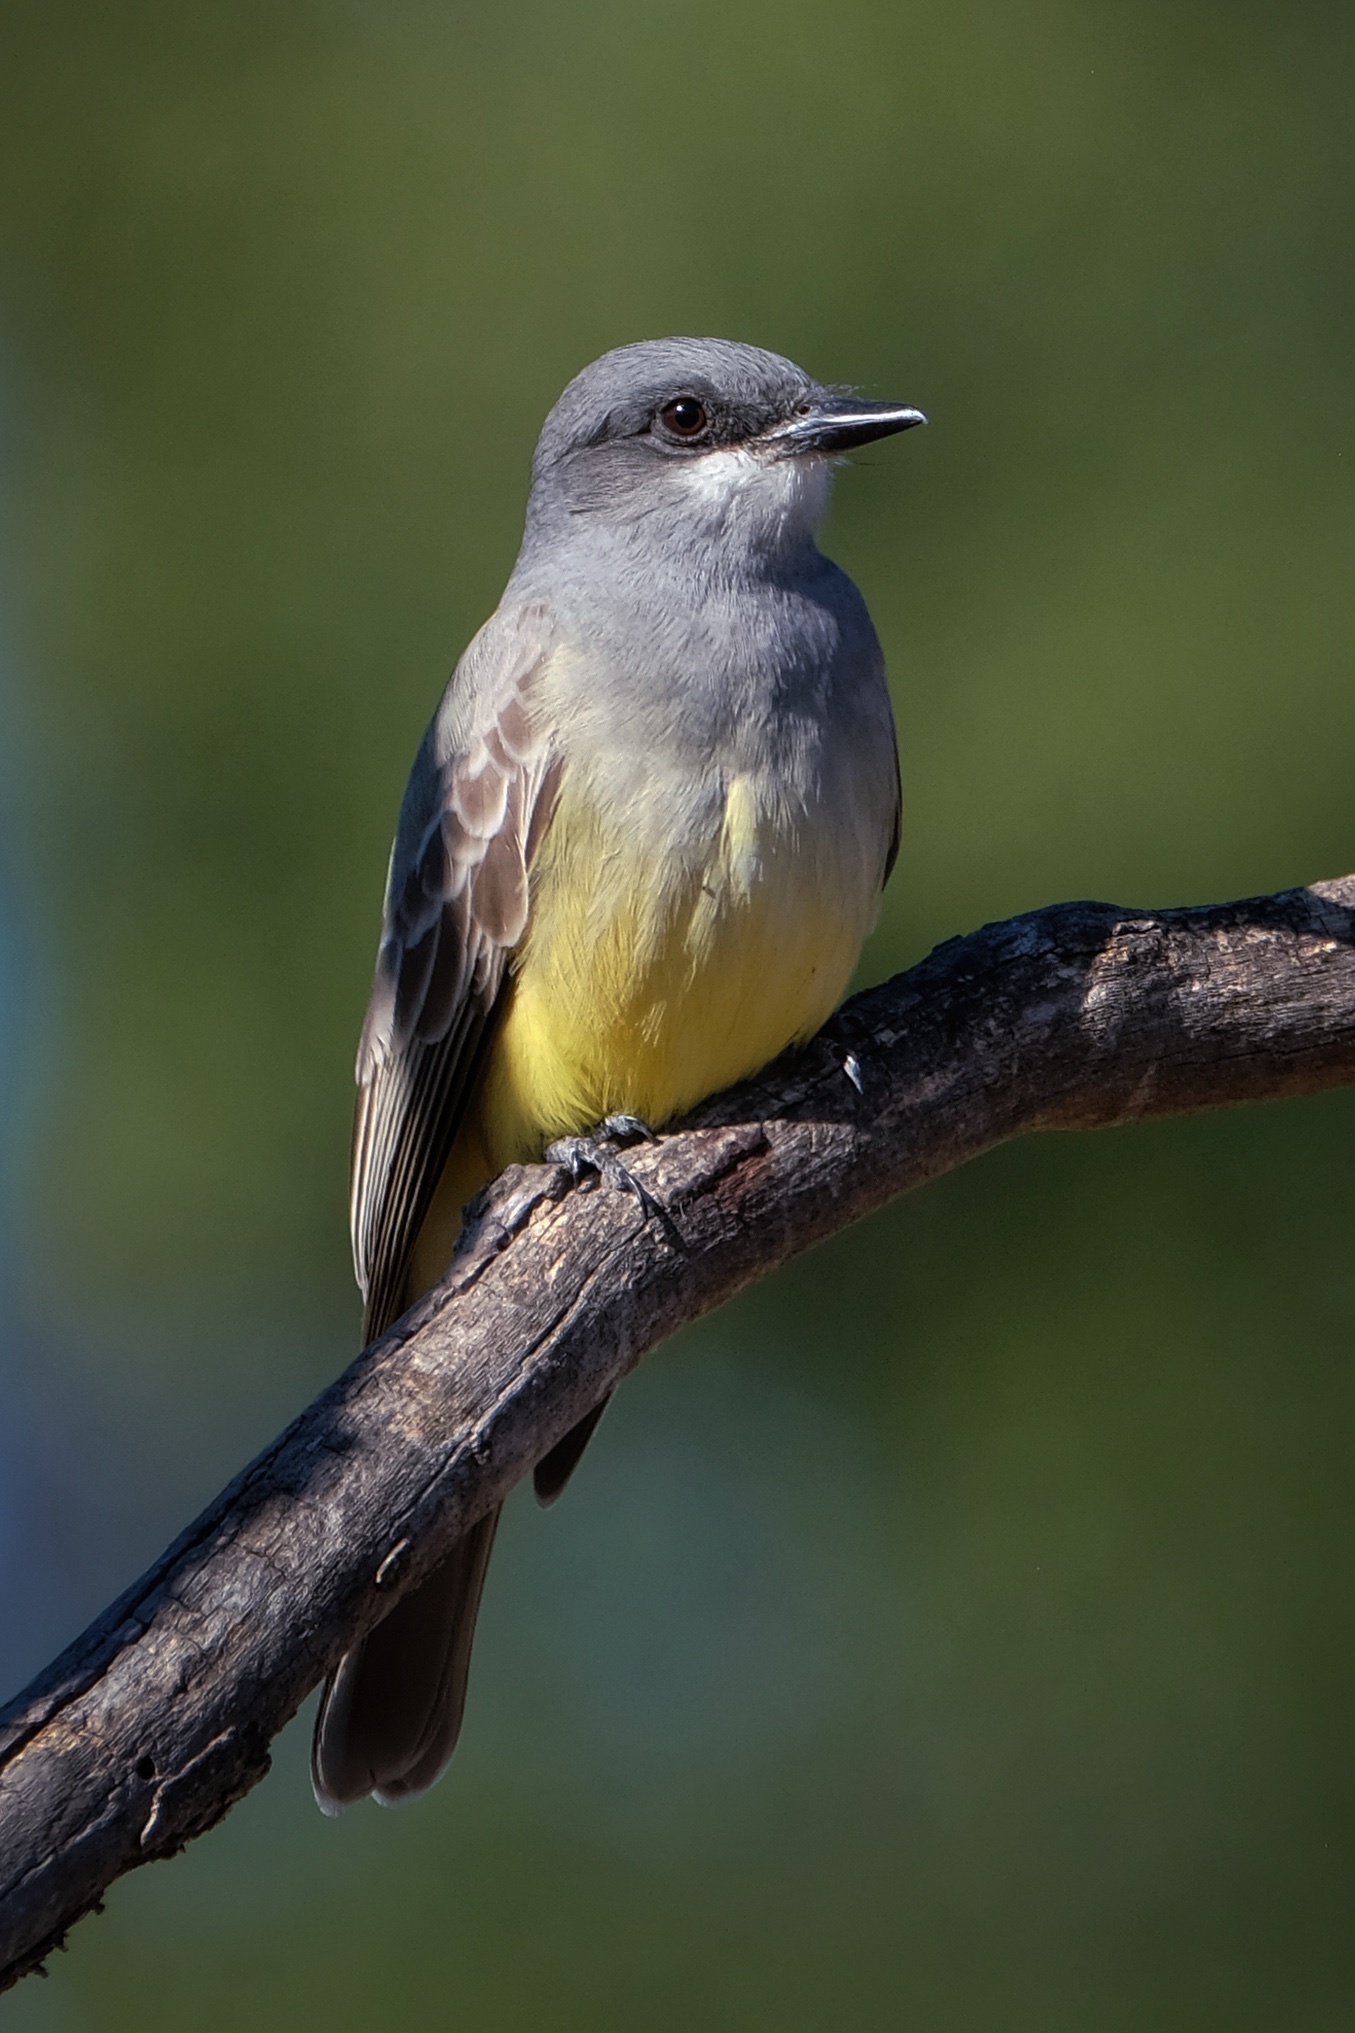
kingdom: Animalia
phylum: Chordata
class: Aves
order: Passeriformes
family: Tyrannidae
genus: Tyrannus
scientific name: Tyrannus vociferans
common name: Cassin's kingbird
